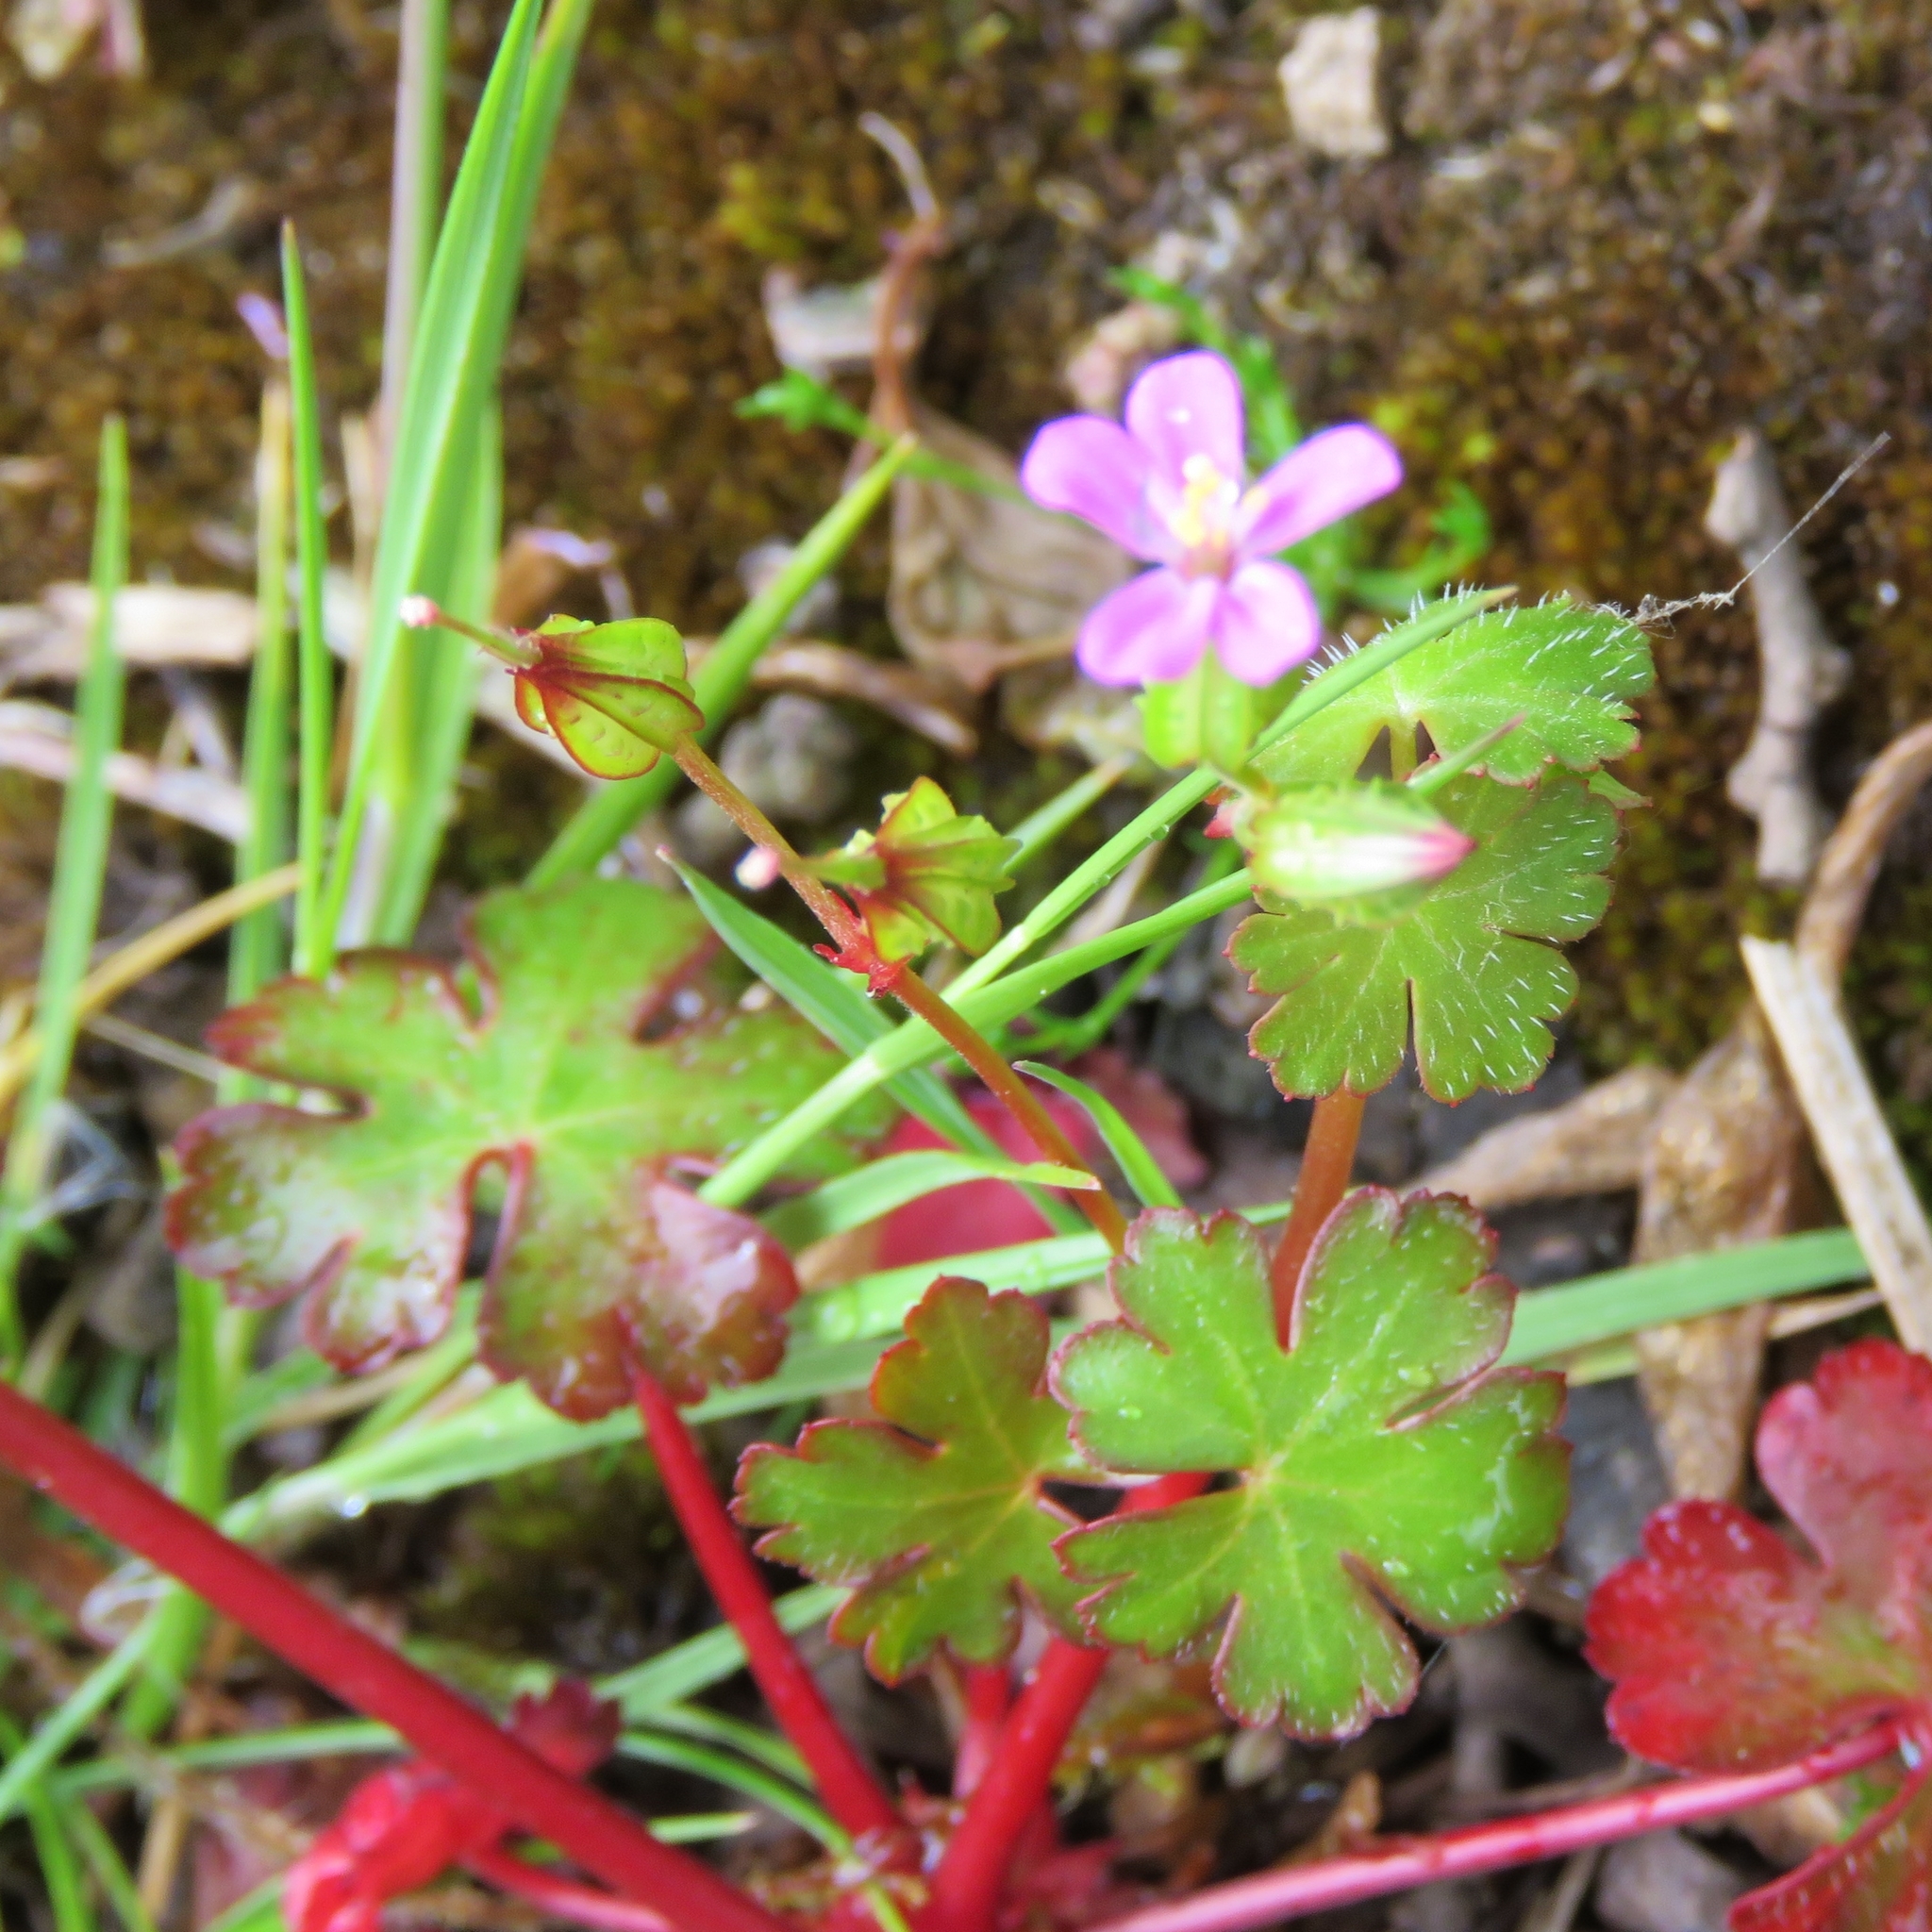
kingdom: Plantae
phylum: Tracheophyta
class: Magnoliopsida
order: Geraniales
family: Geraniaceae
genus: Geranium
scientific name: Geranium lucidum
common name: Shining crane's-bill
